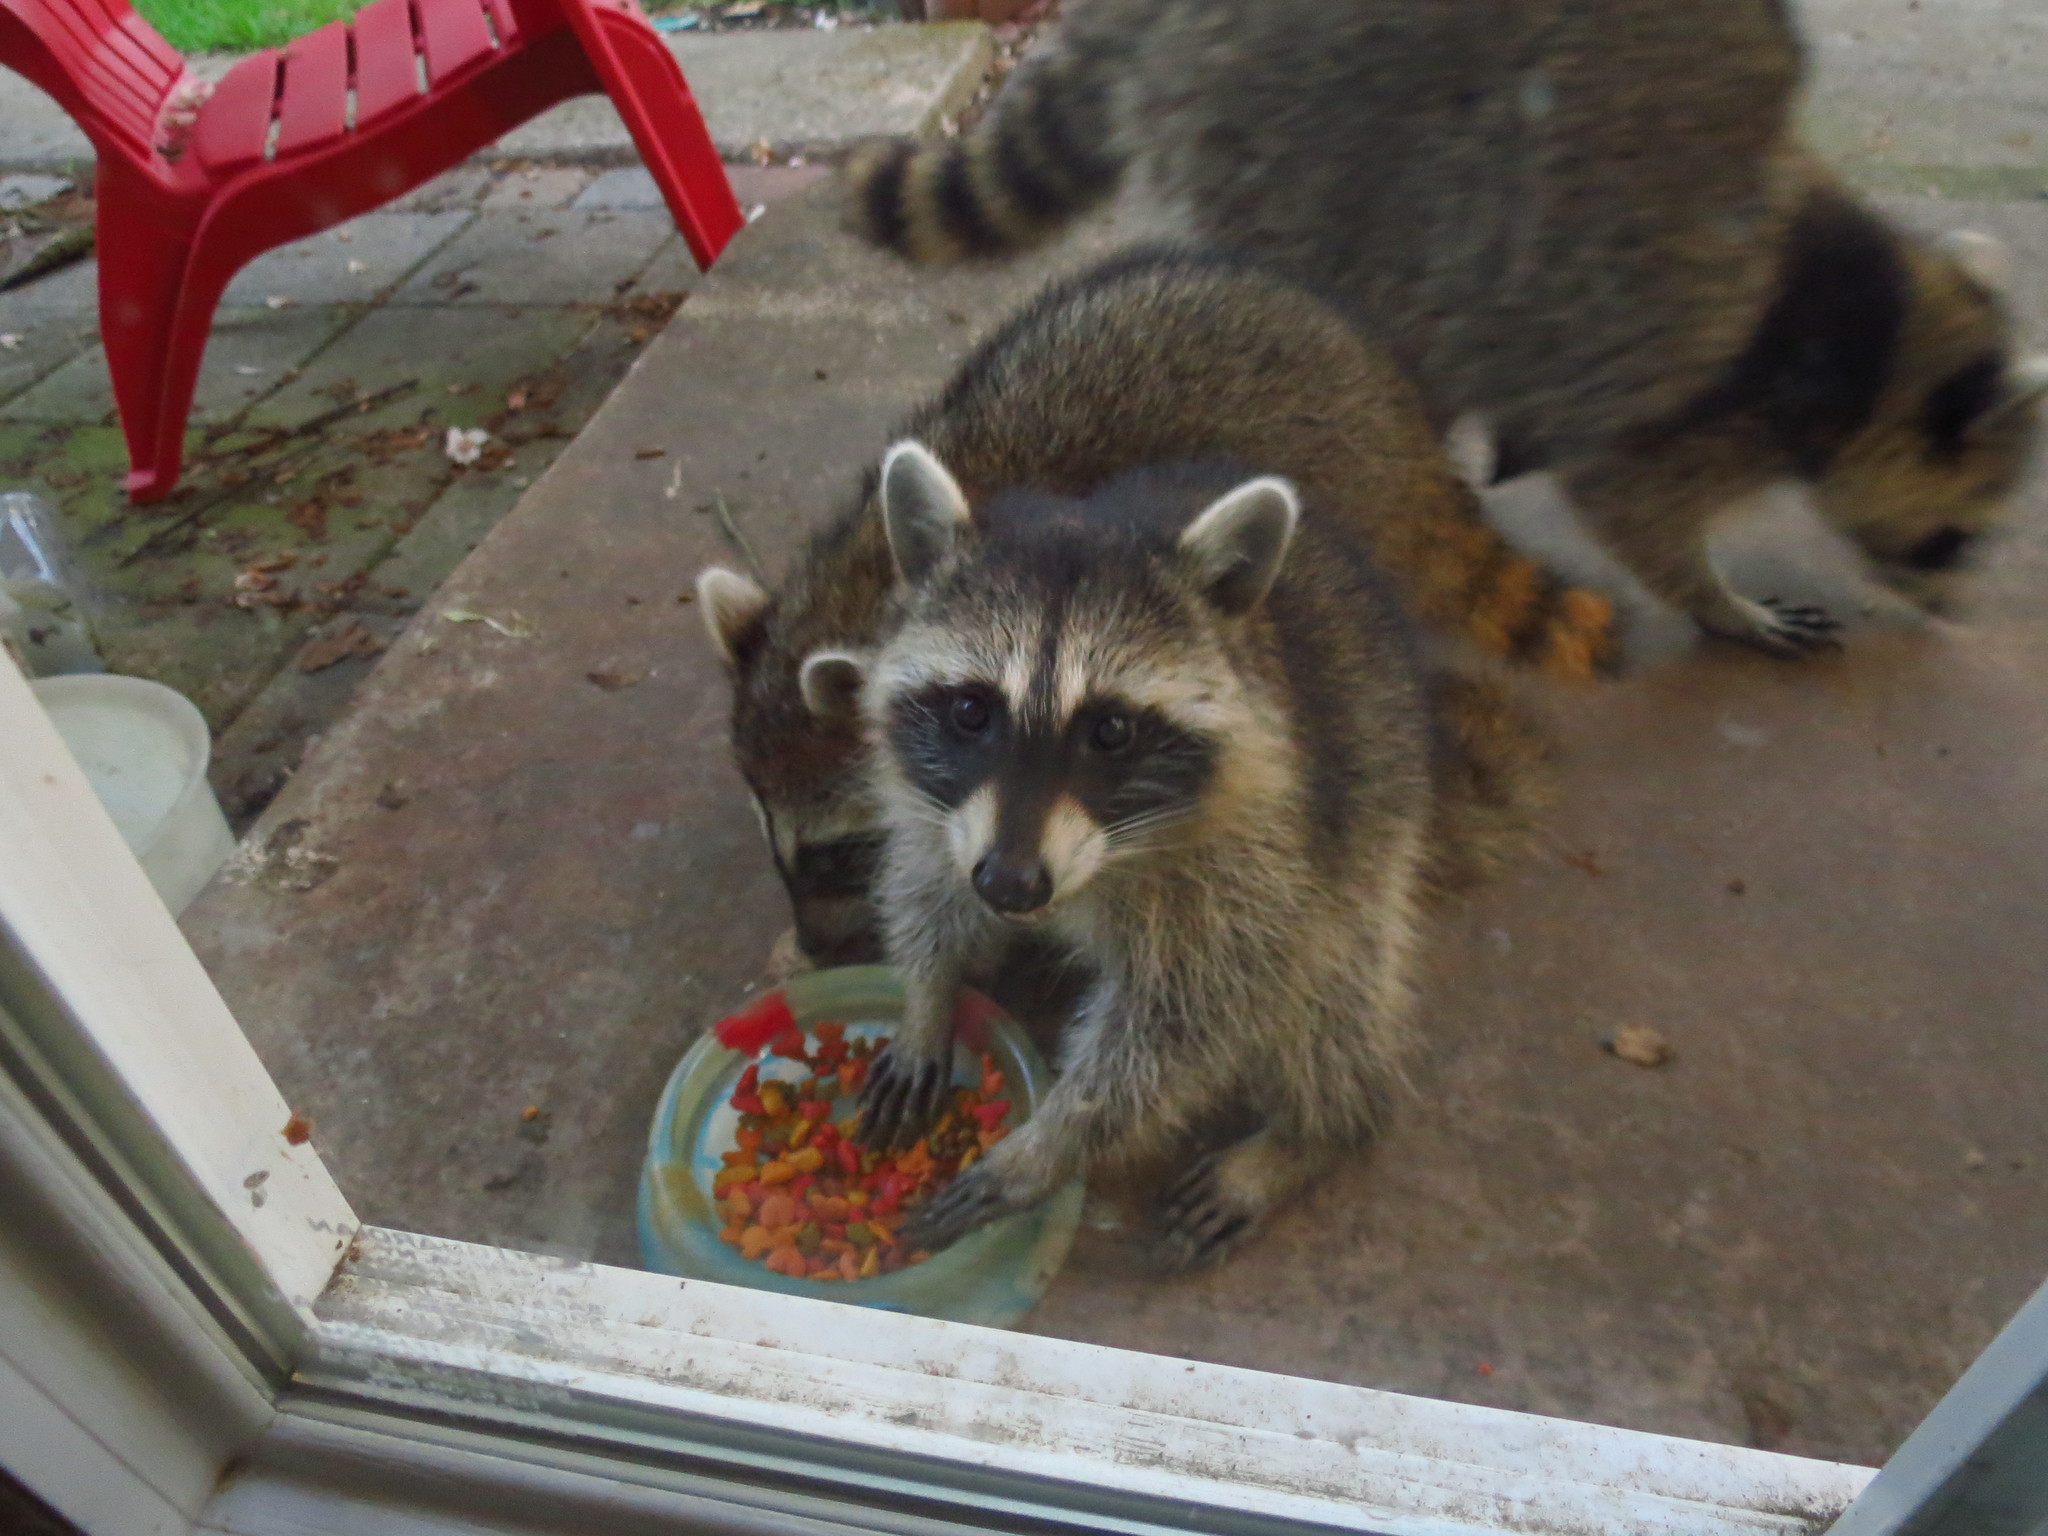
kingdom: Animalia
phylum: Chordata
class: Mammalia
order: Carnivora
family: Procyonidae
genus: Procyon
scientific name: Procyon lotor
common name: Raccoon
